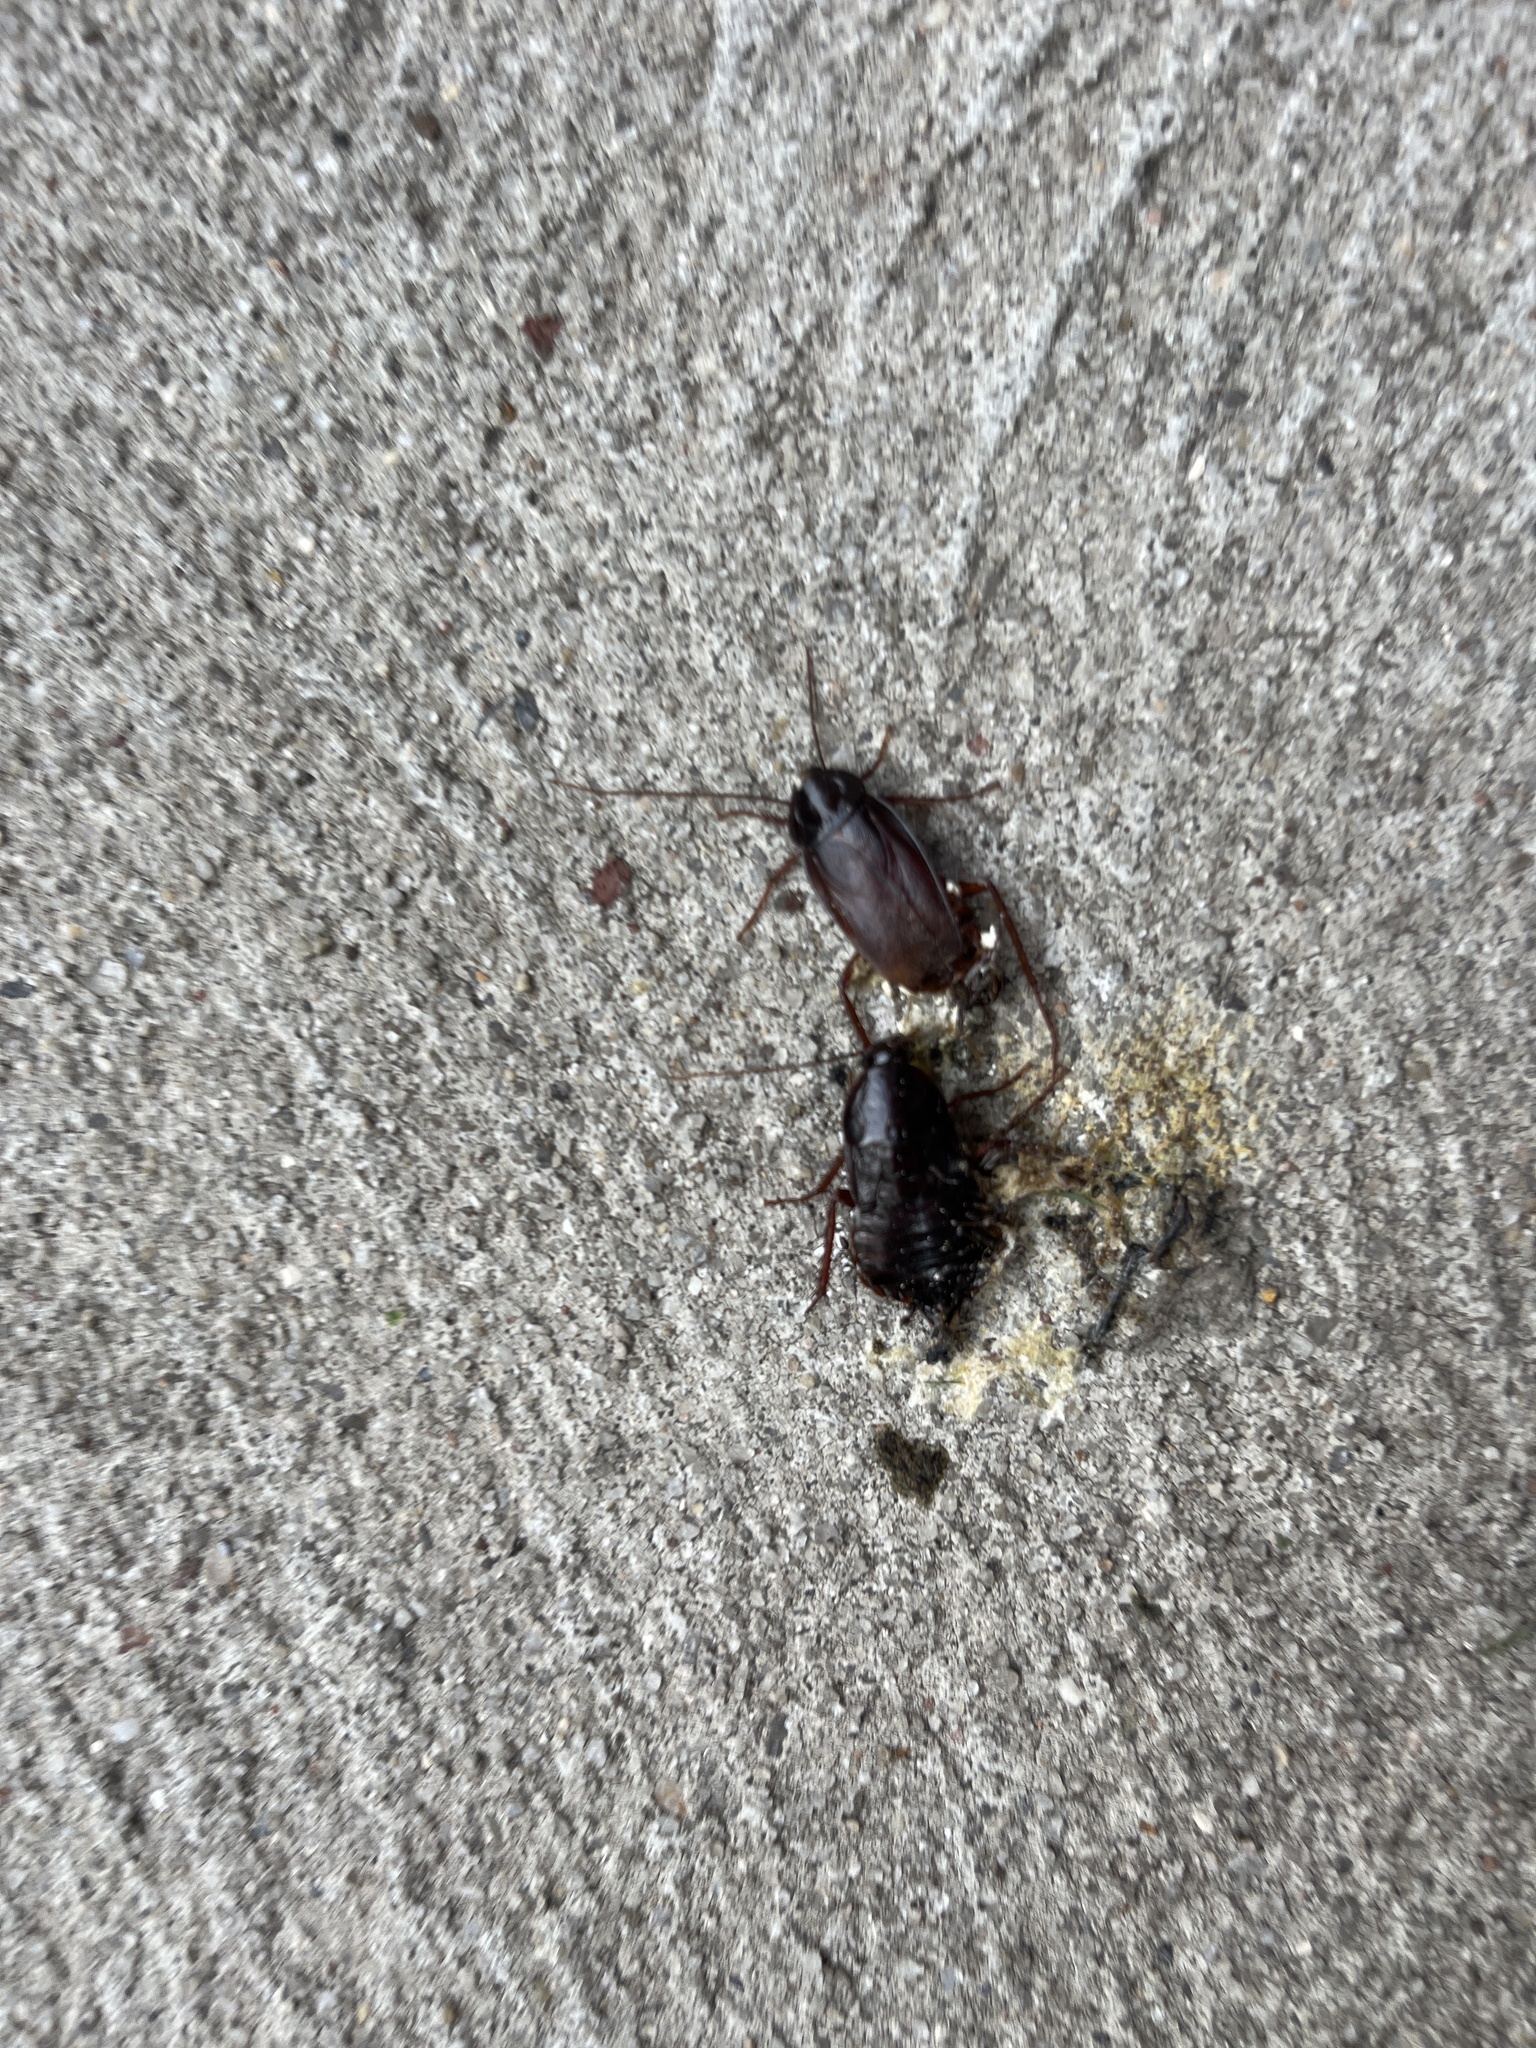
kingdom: Animalia
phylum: Arthropoda
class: Insecta
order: Blattodea
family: Blattidae
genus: Blatta
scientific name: Blatta orientalis
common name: Oriental cockroach
